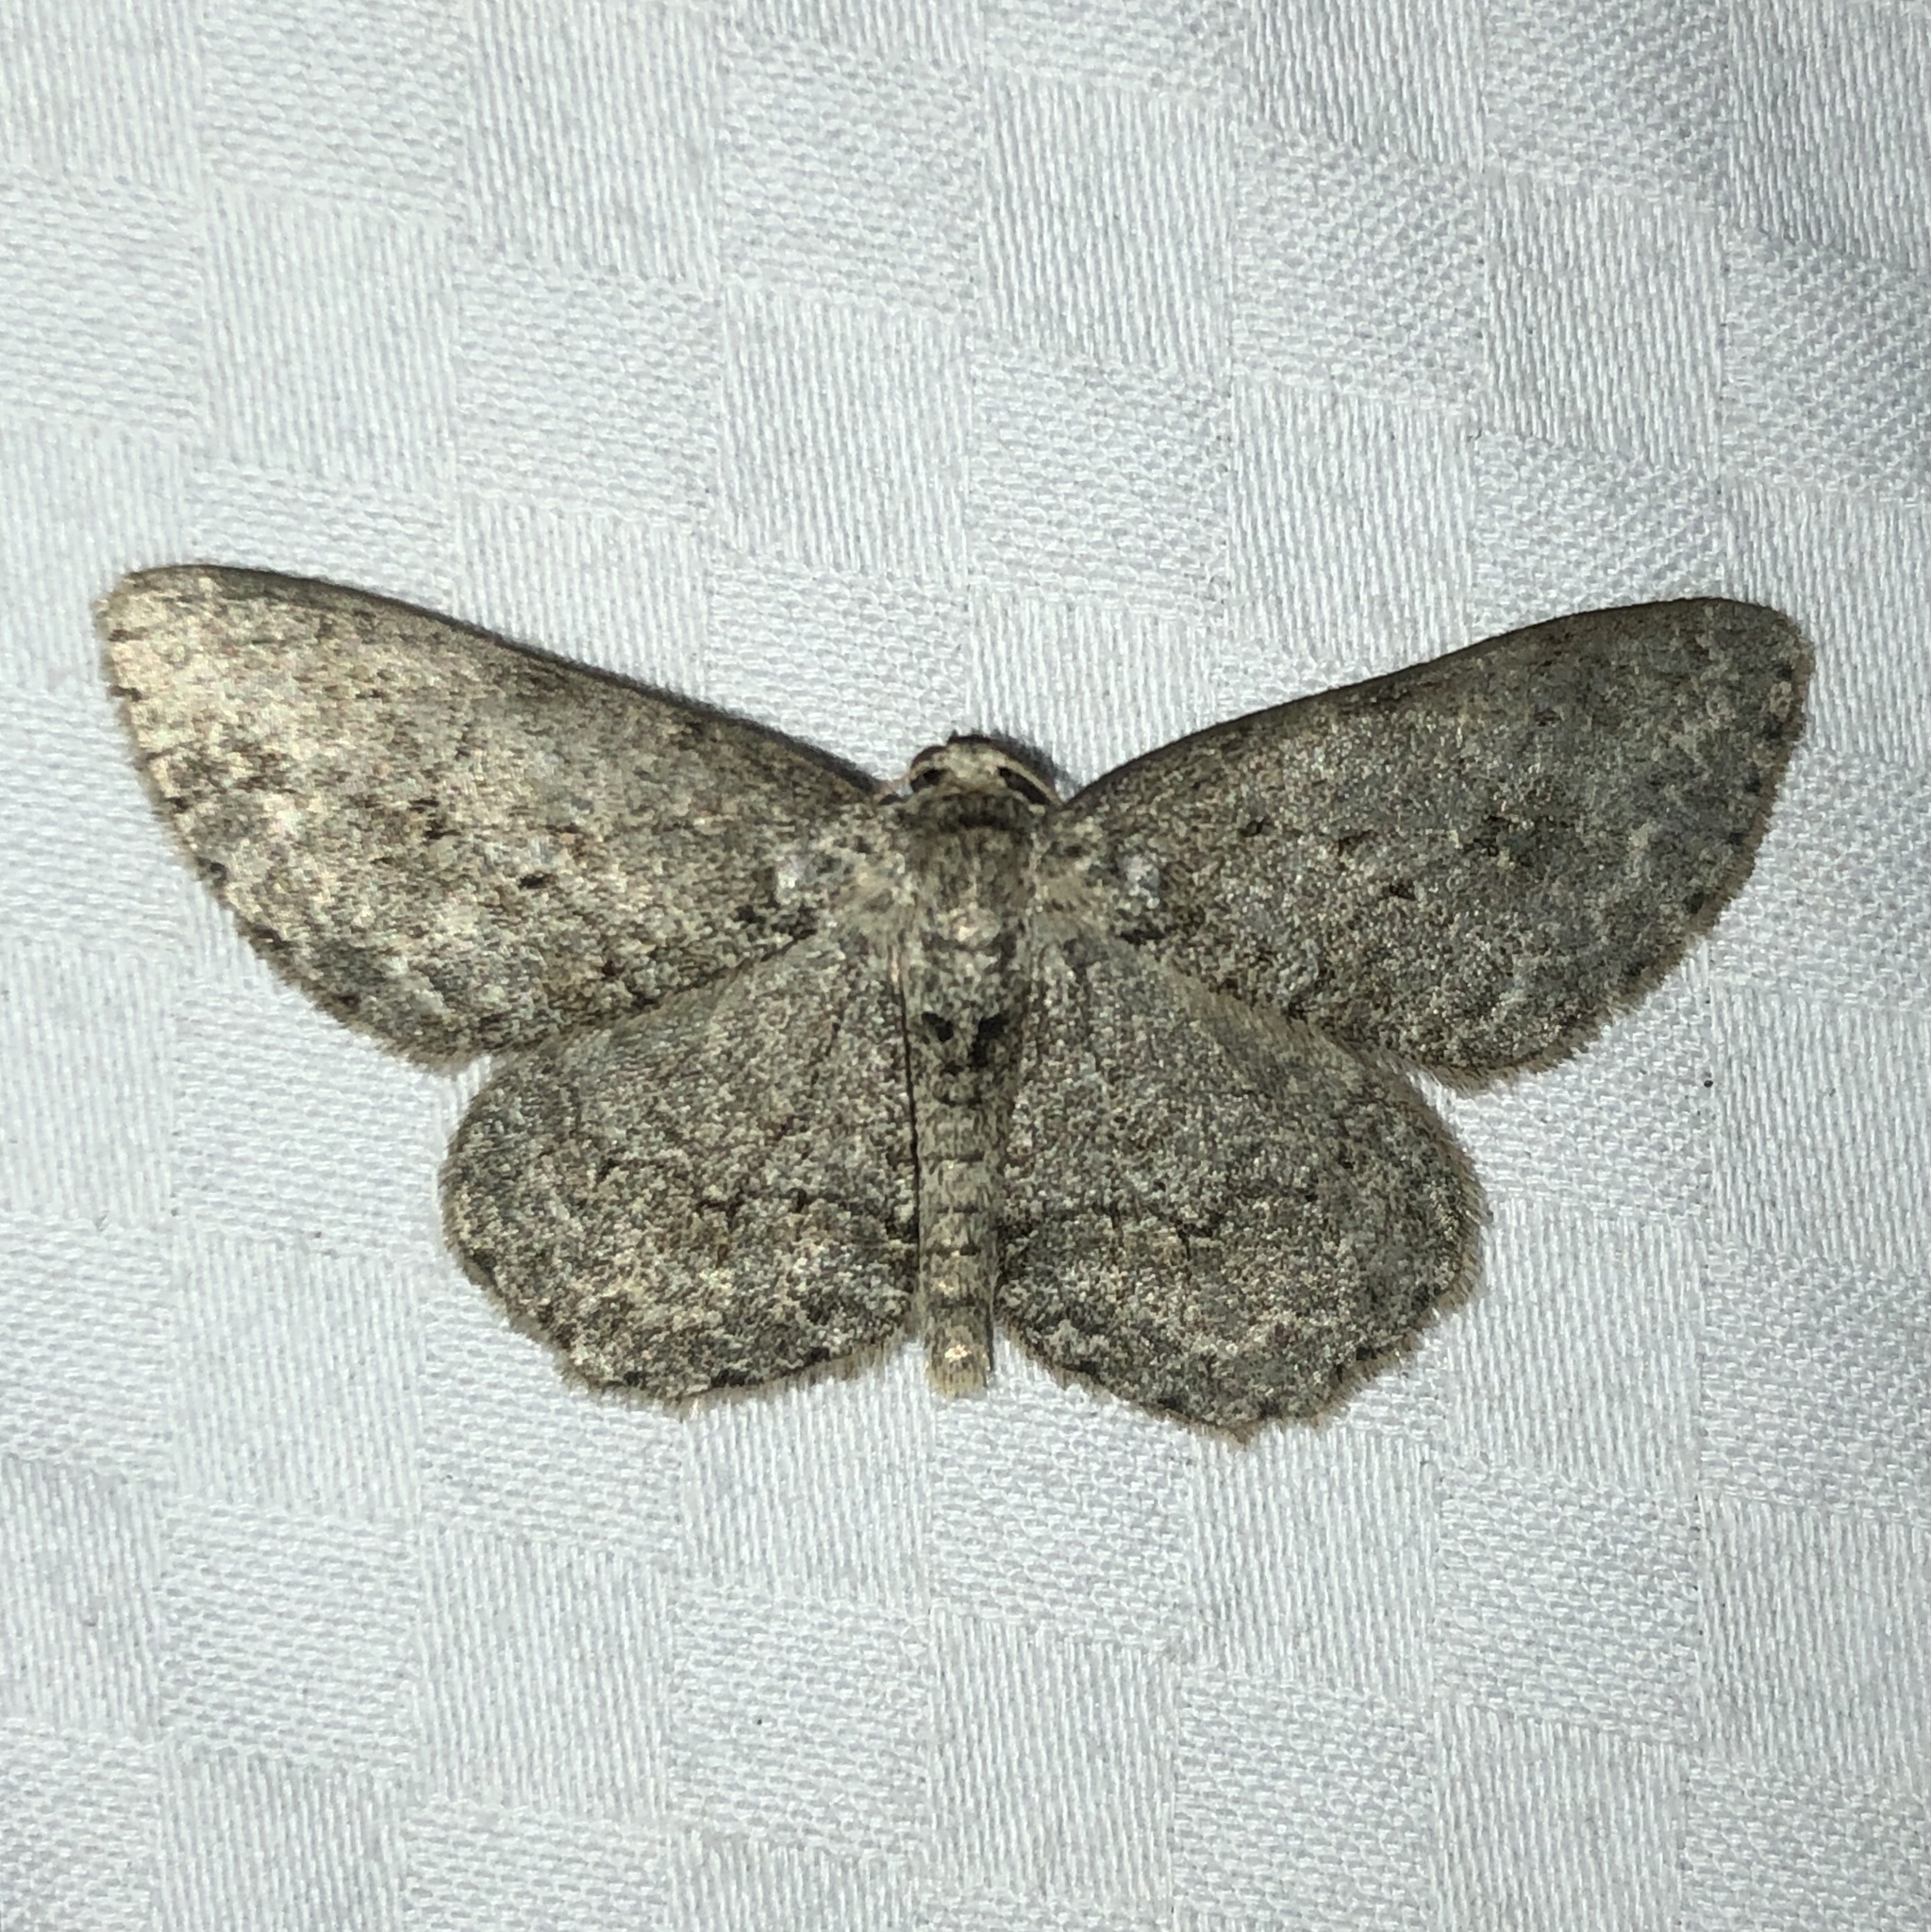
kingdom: Animalia
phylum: Arthropoda
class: Insecta
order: Lepidoptera
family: Geometridae
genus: Ectropis
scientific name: Ectropis crepuscularia
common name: Engrailed
